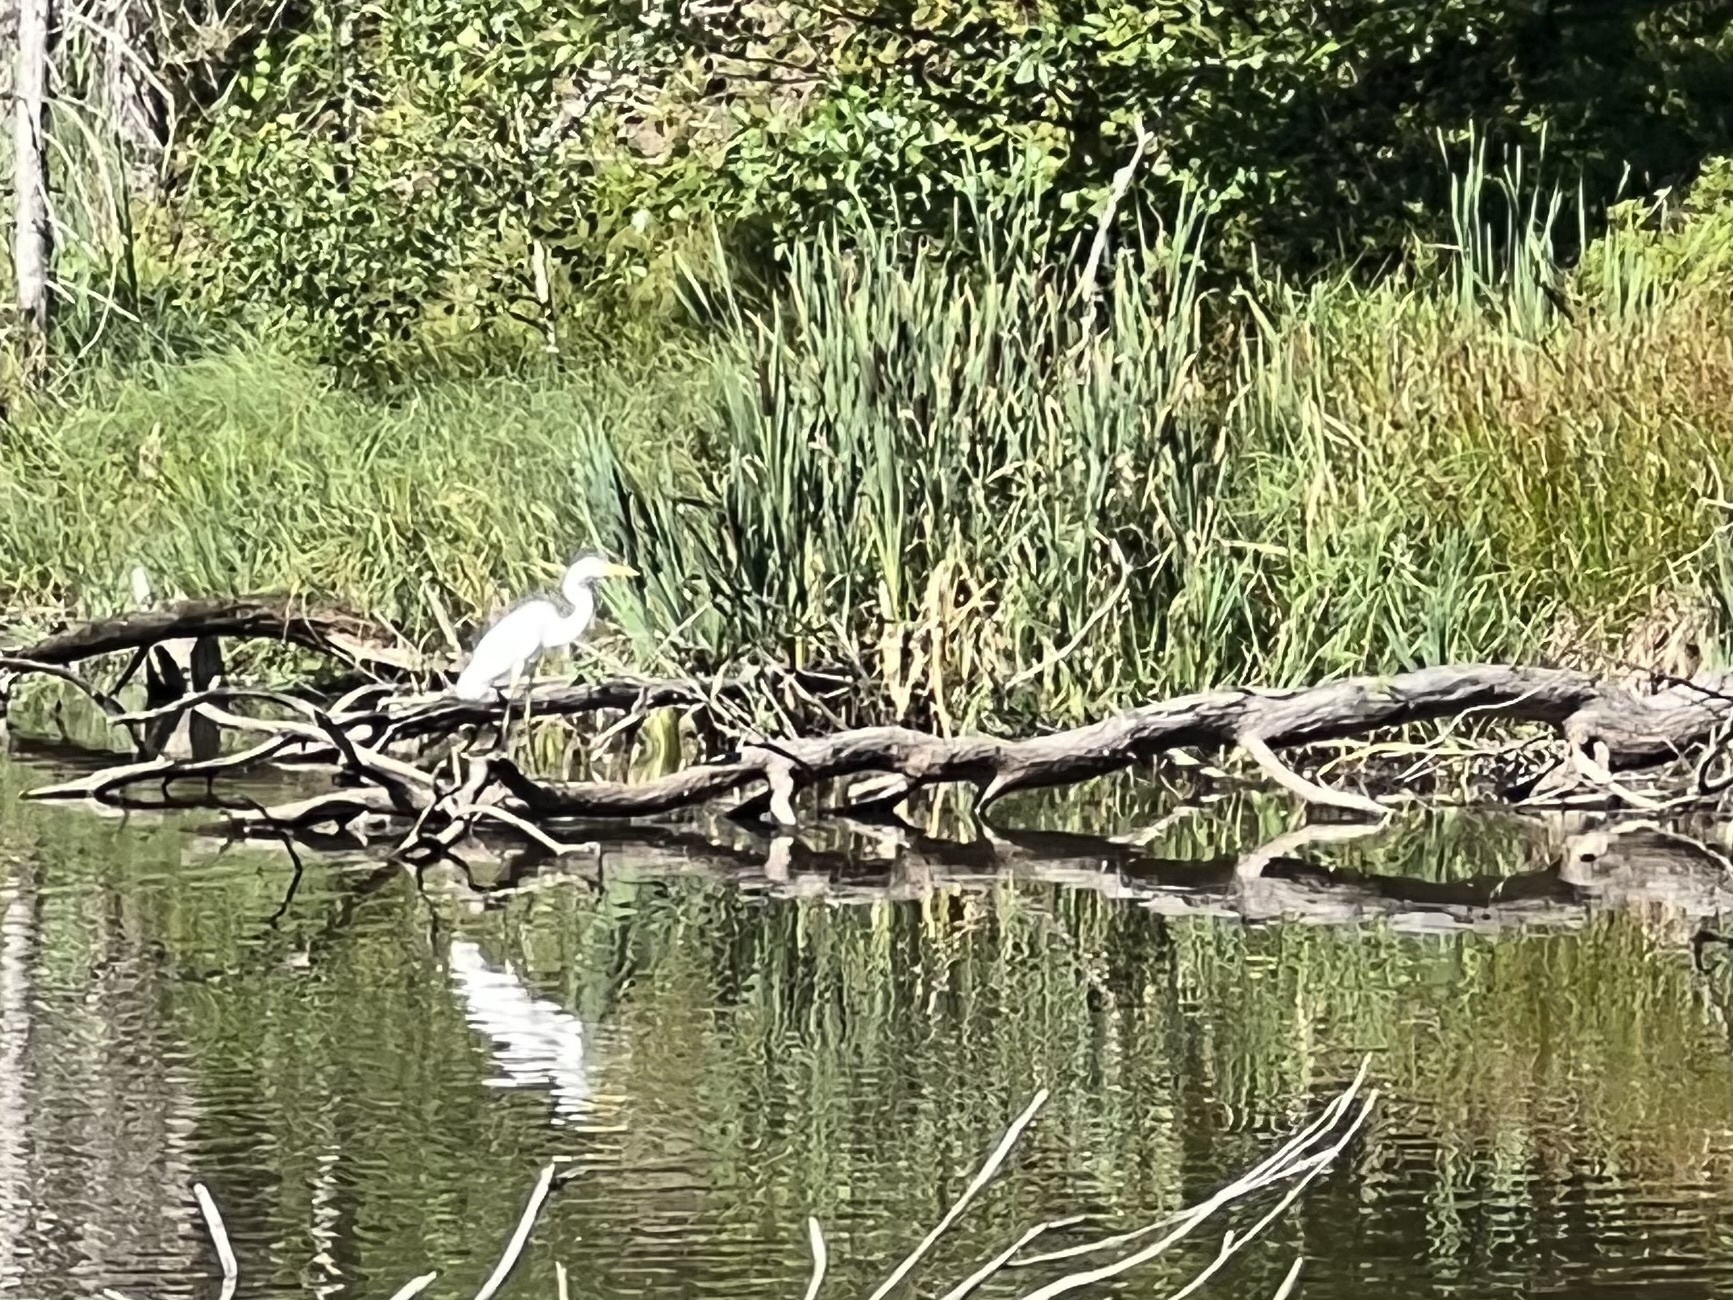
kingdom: Animalia
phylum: Chordata
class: Aves
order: Pelecaniformes
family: Ardeidae
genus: Ardea
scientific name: Ardea alba
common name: Great egret
